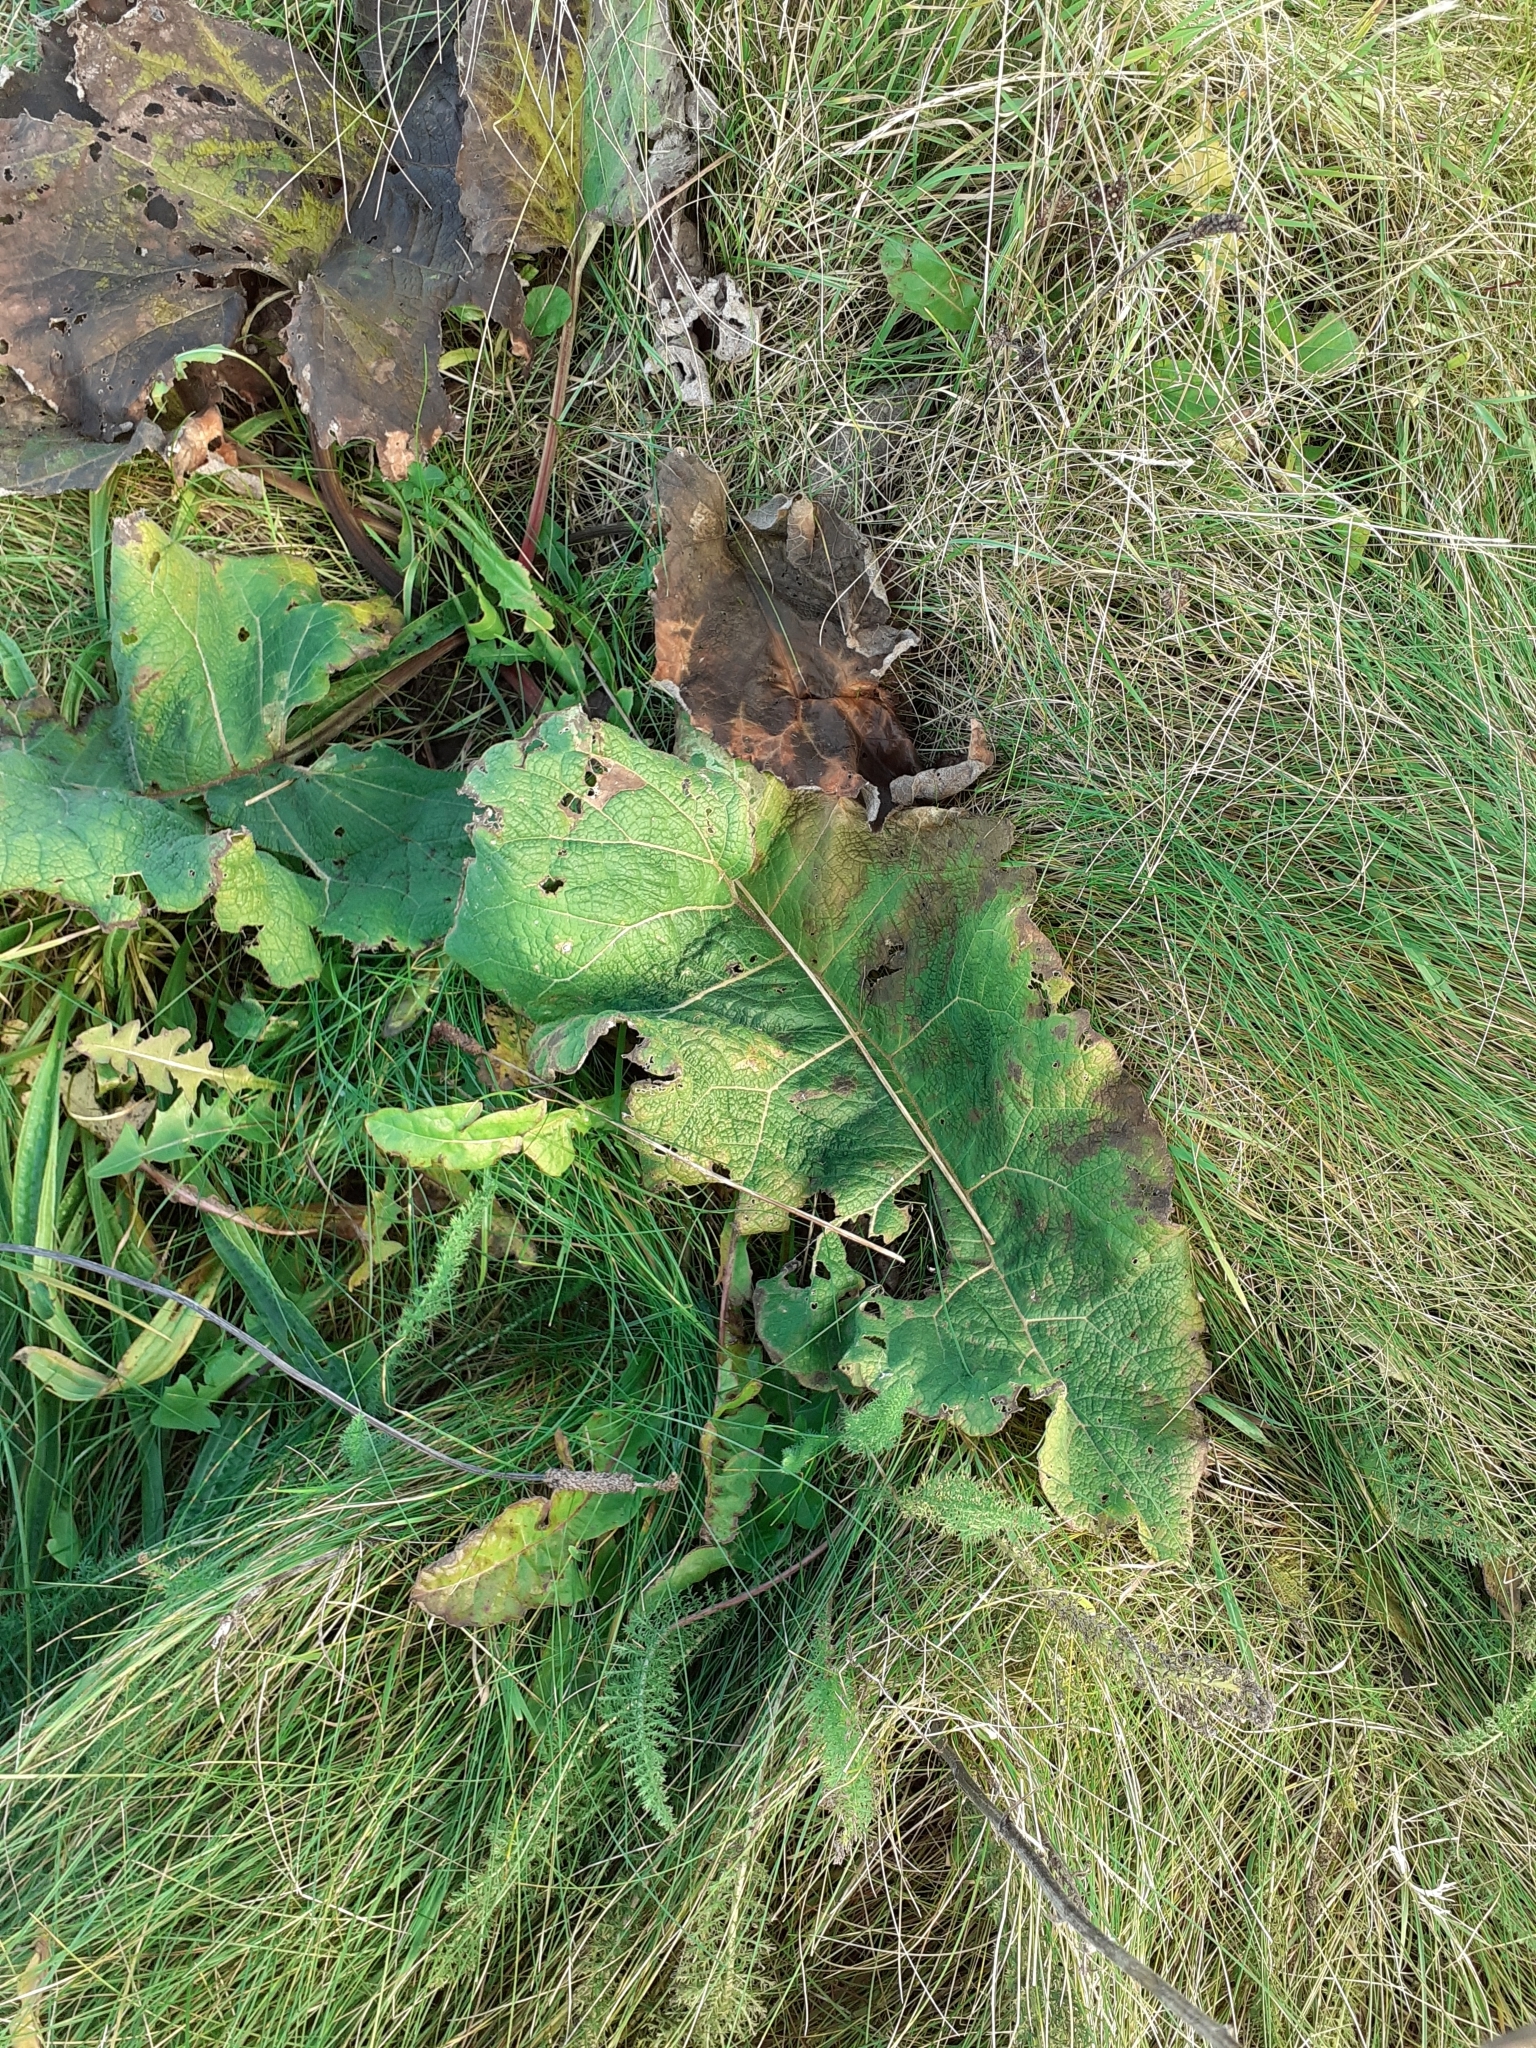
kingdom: Plantae
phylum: Tracheophyta
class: Magnoliopsida
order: Asterales
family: Asteraceae
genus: Arctium
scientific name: Arctium minus
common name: Lesser burdock
